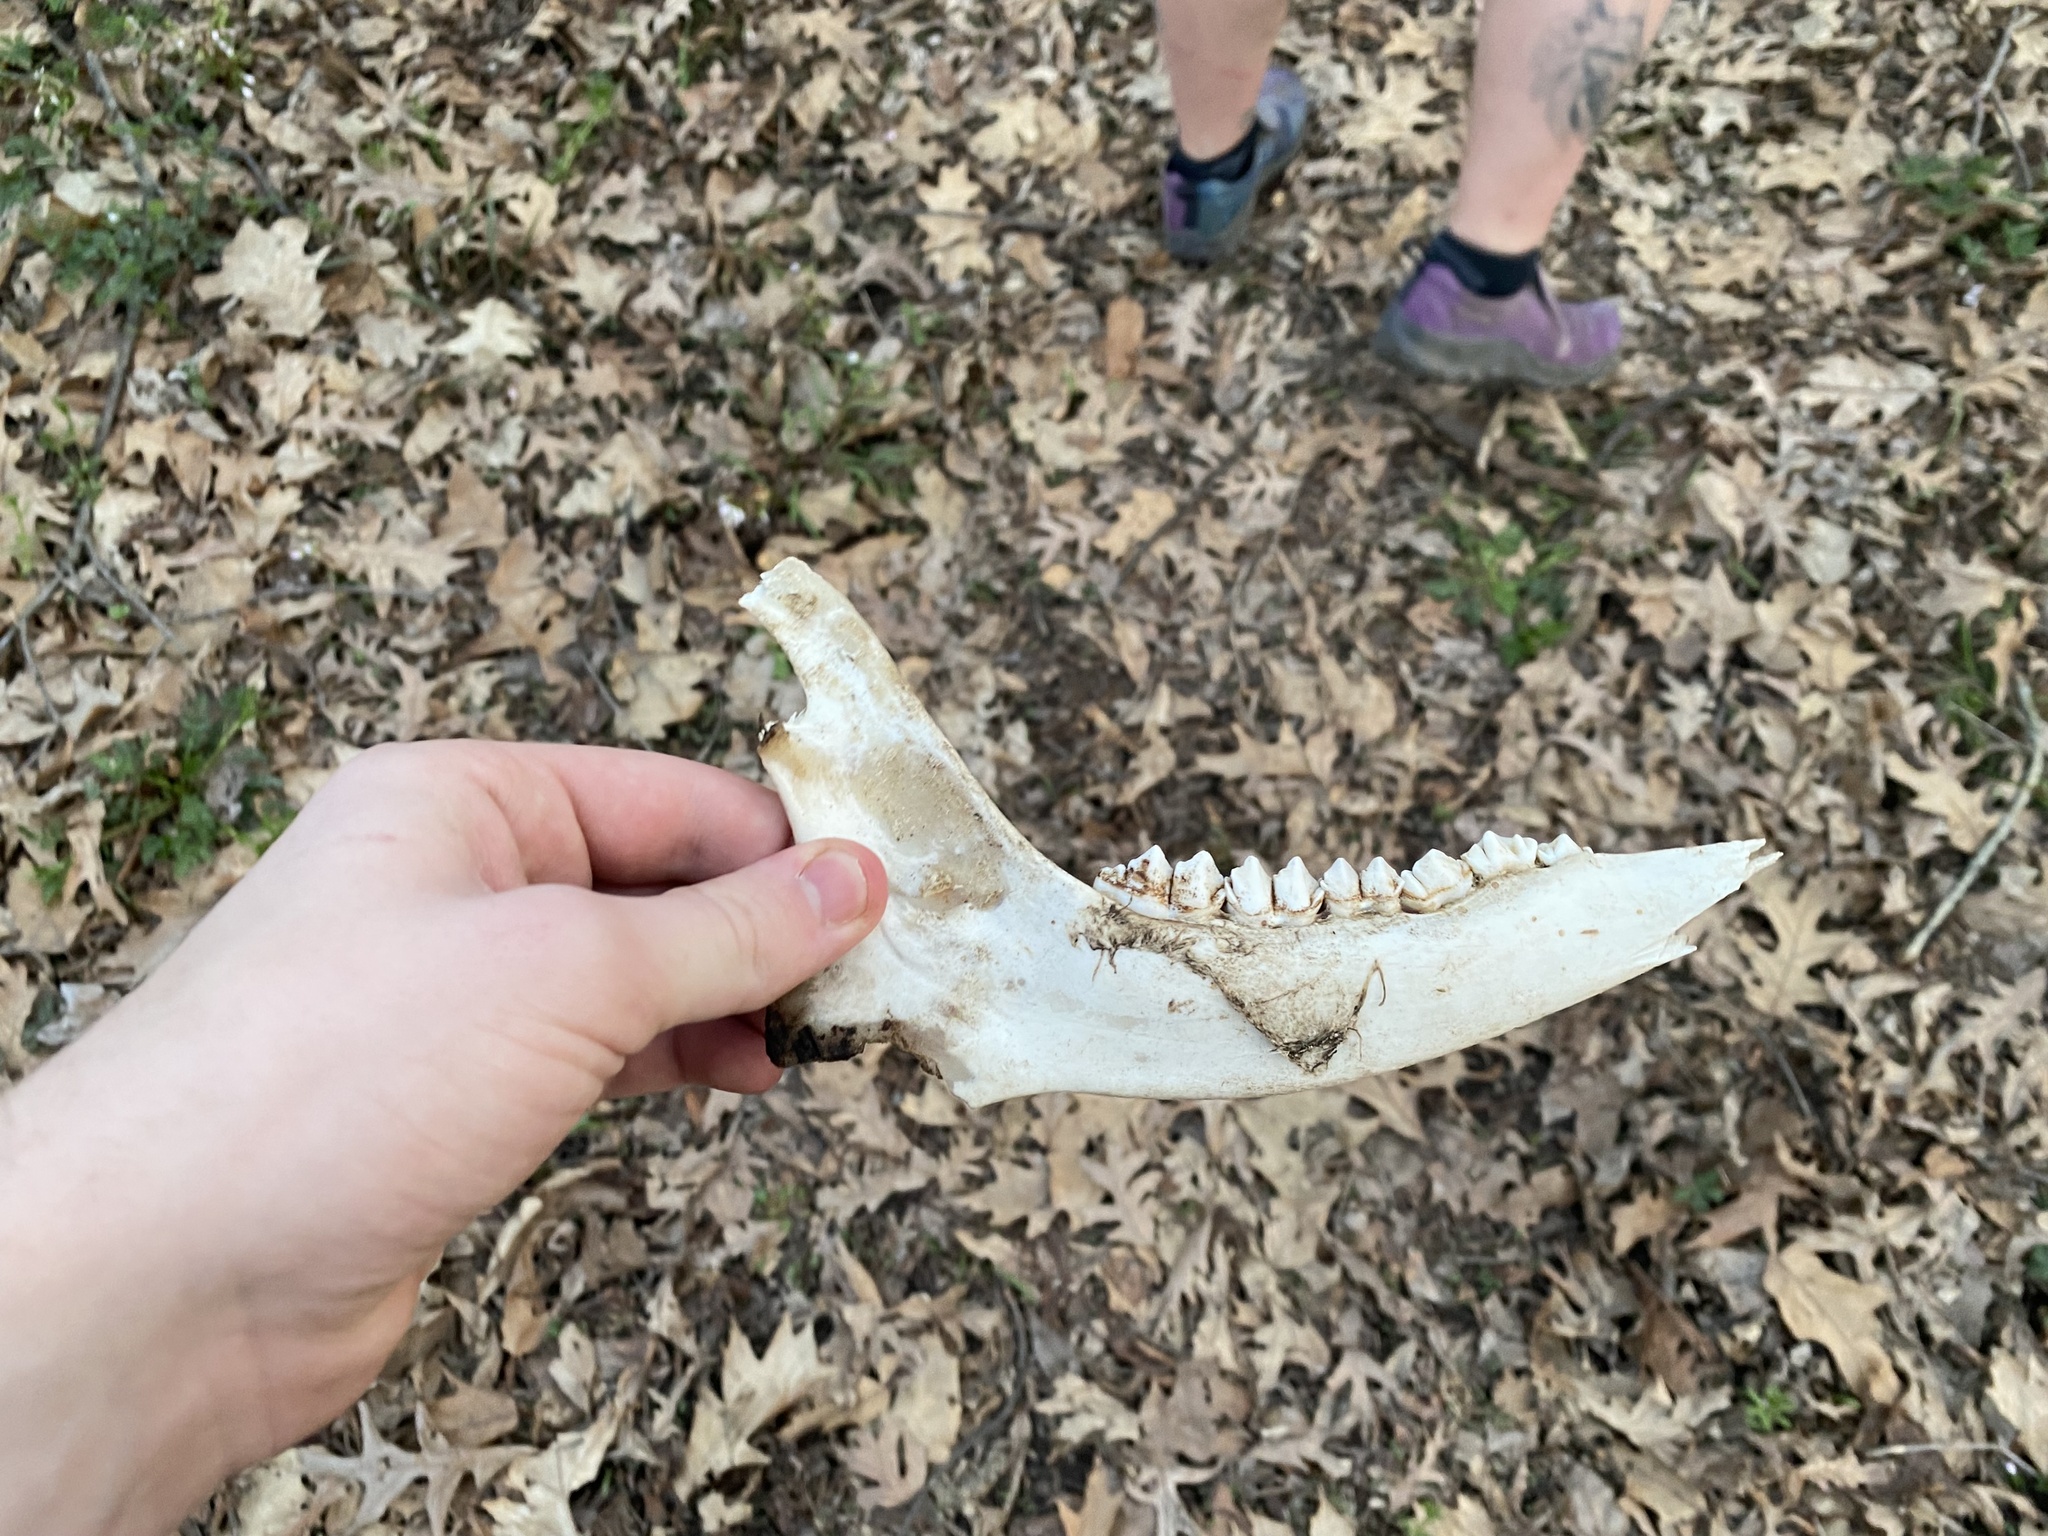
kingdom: Animalia
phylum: Chordata
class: Mammalia
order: Artiodactyla
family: Cervidae
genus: Odocoileus
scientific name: Odocoileus virginianus
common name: White-tailed deer
